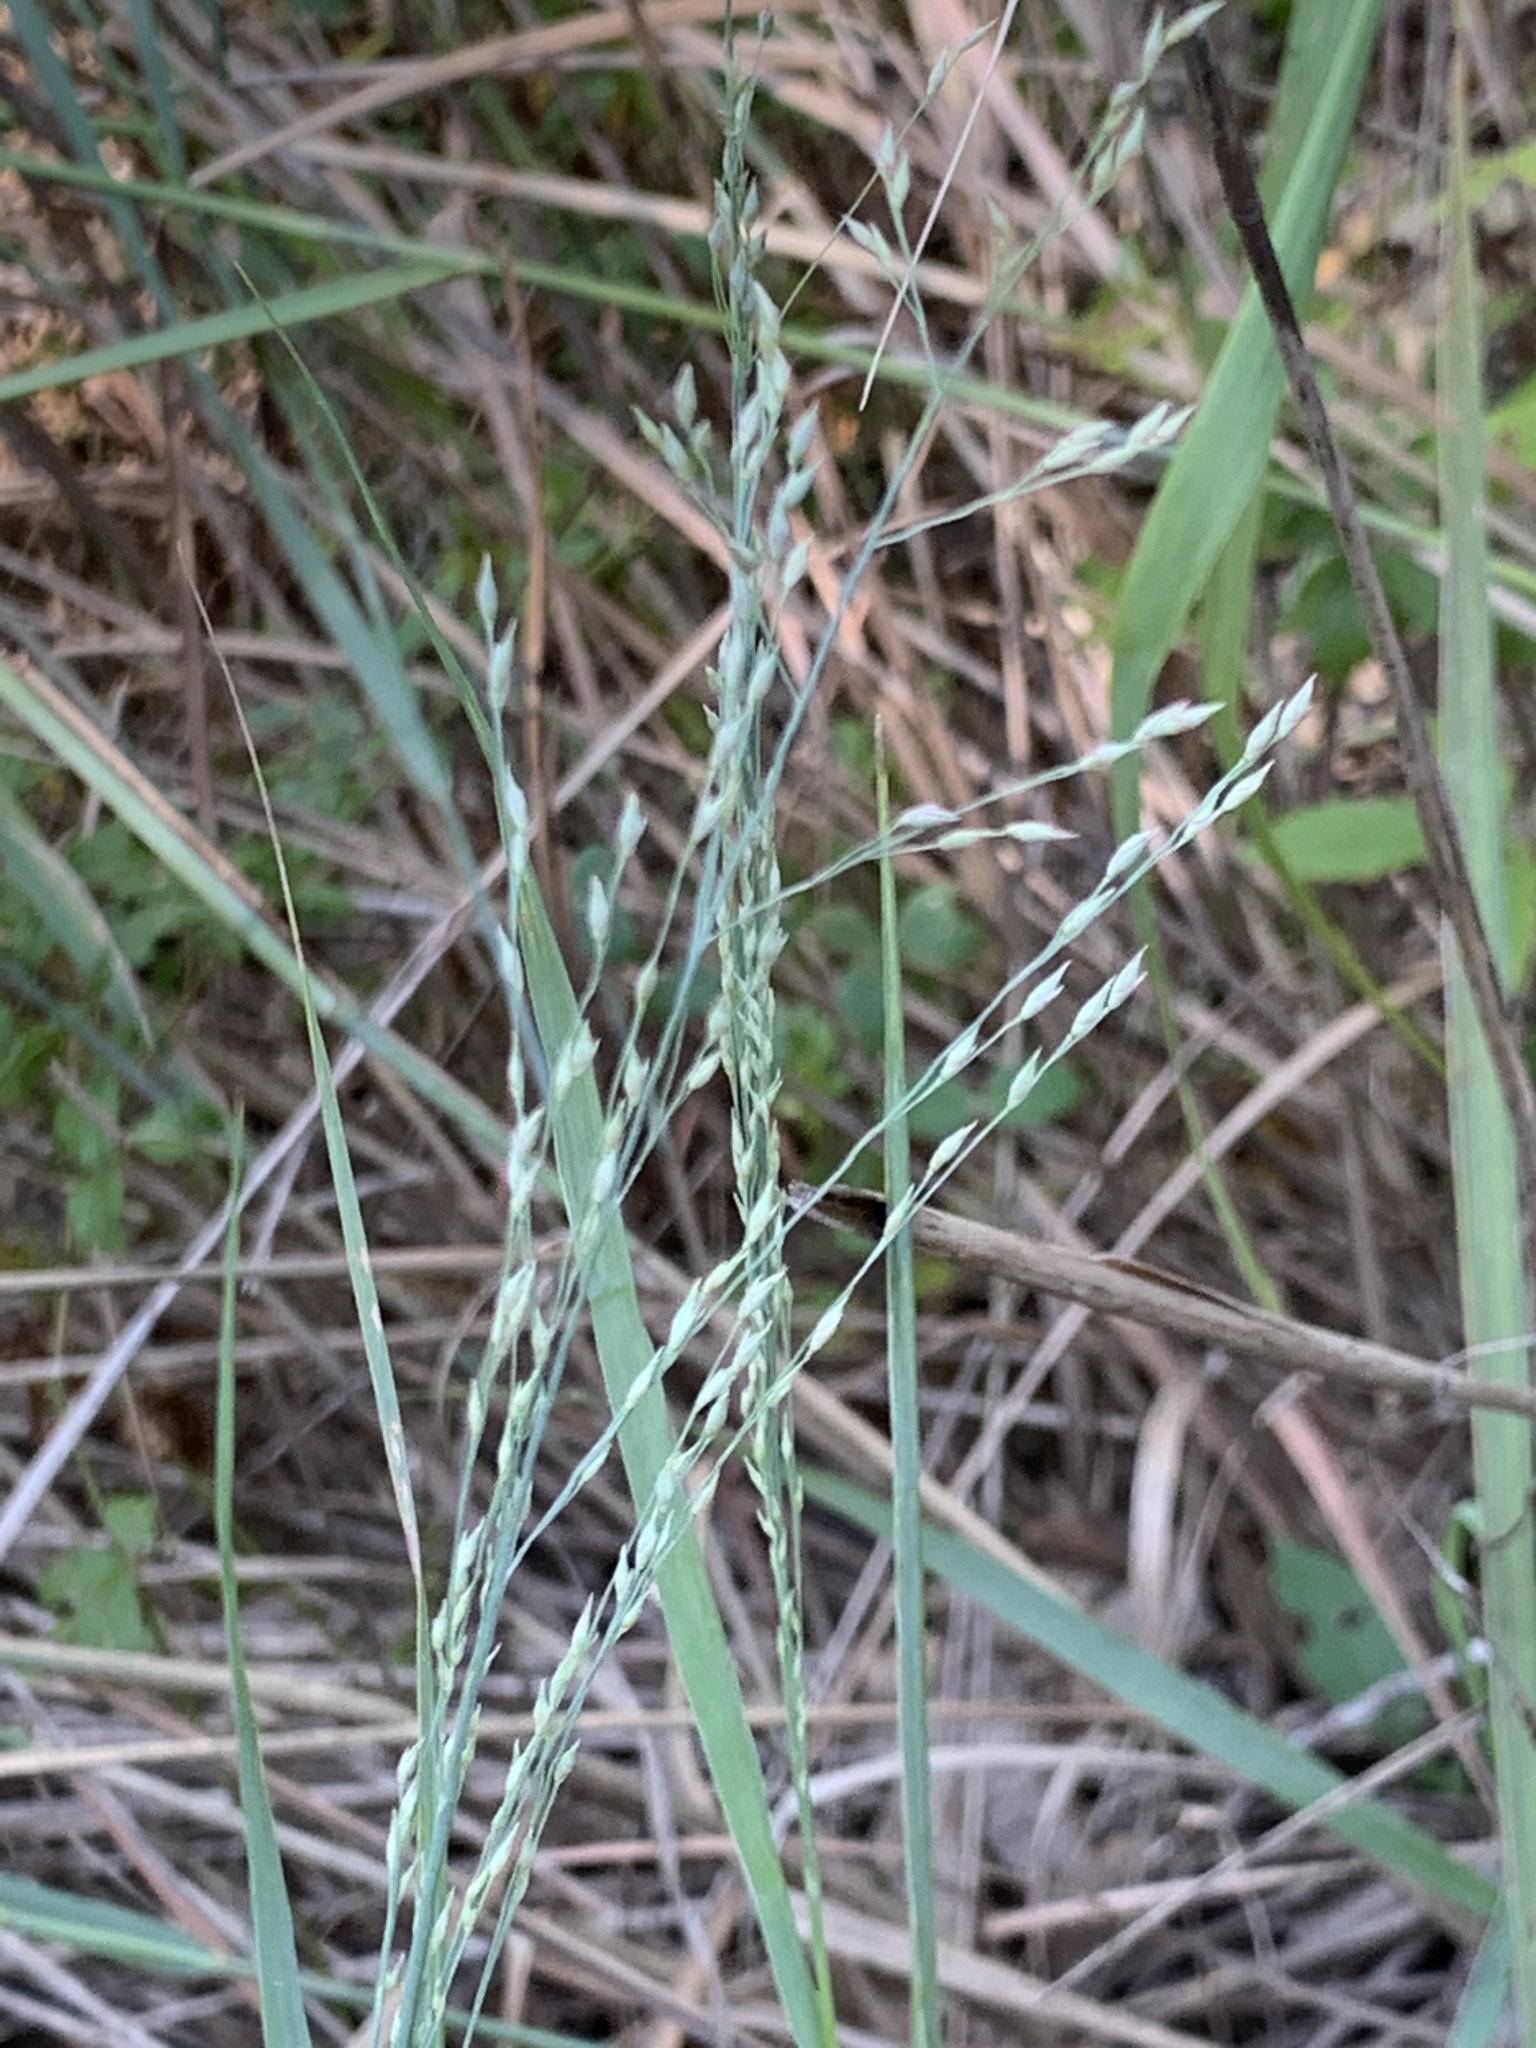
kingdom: Plantae
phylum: Tracheophyta
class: Liliopsida
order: Poales
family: Poaceae
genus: Panicum
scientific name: Panicum virgatum
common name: Switchgrass
